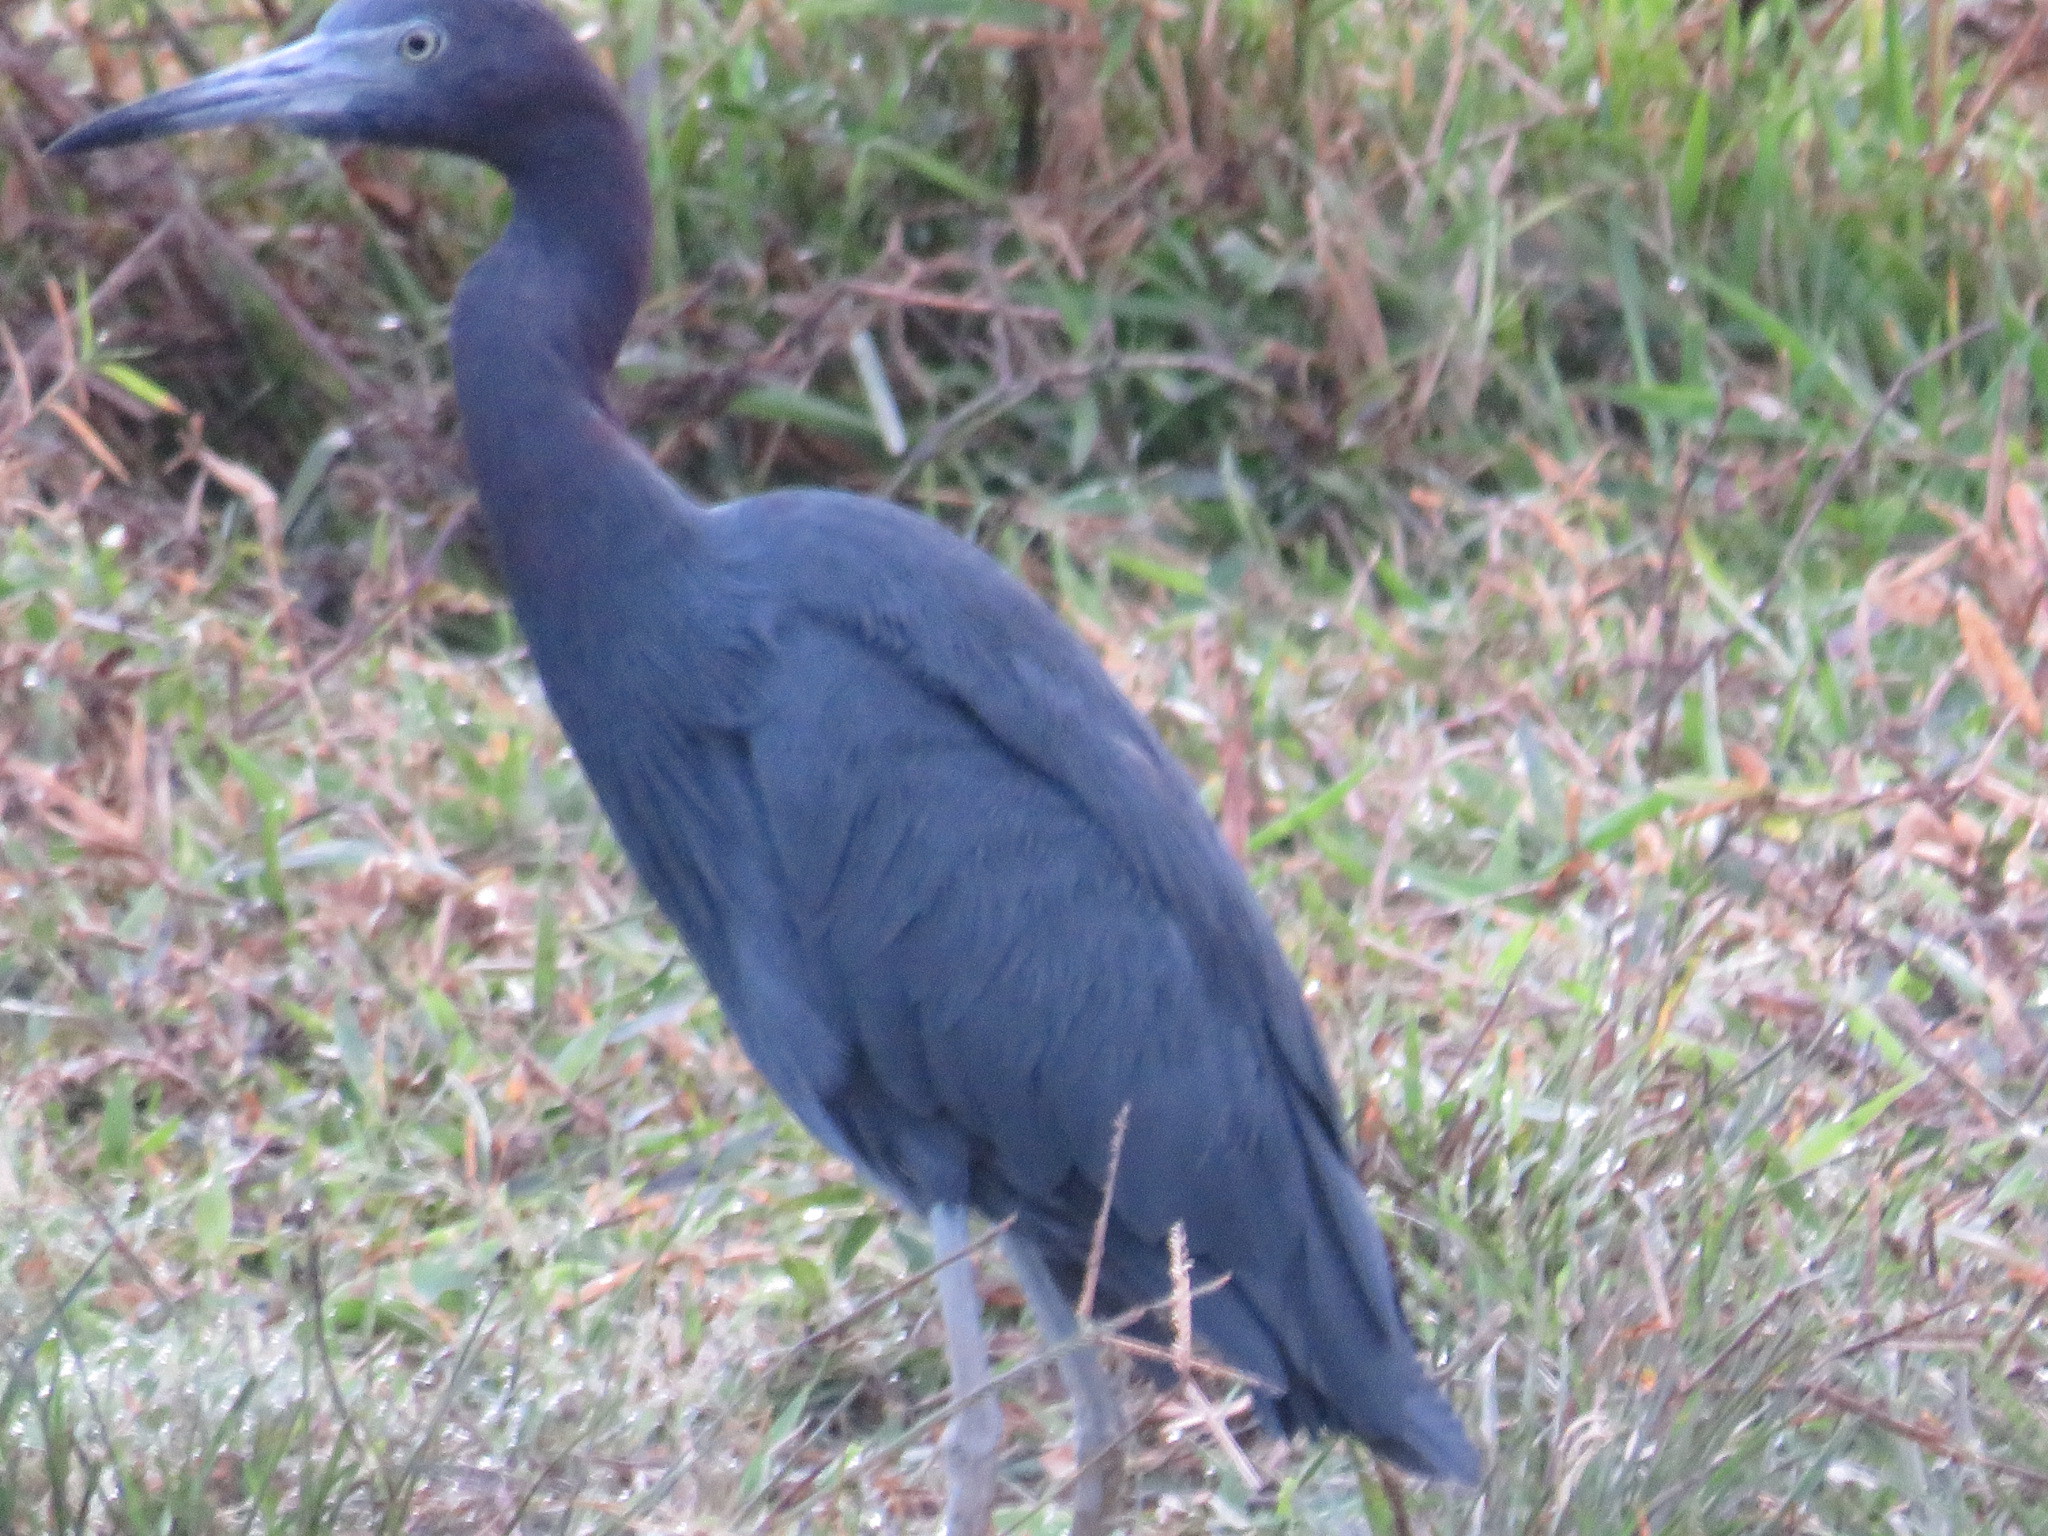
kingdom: Animalia
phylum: Chordata
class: Aves
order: Pelecaniformes
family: Ardeidae
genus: Egretta
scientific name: Egretta caerulea
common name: Little blue heron
